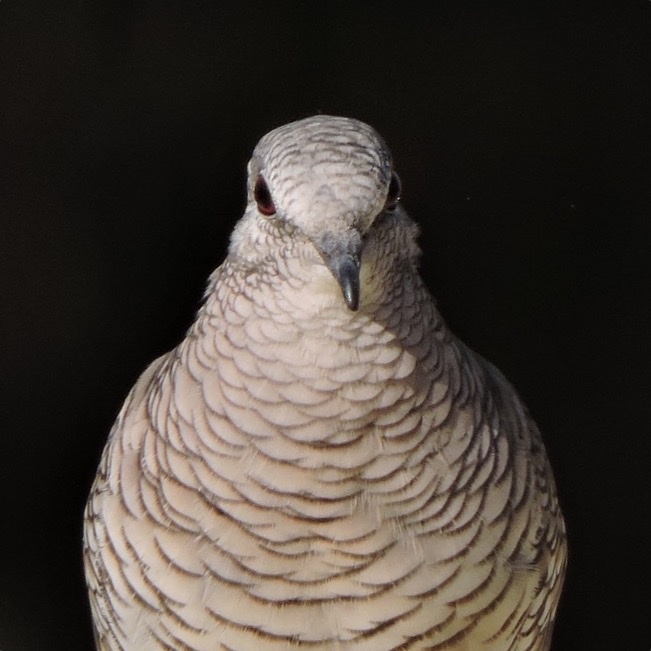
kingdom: Animalia
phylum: Chordata
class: Aves
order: Columbiformes
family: Columbidae
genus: Columbina
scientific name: Columbina squammata
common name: Scaled dove
